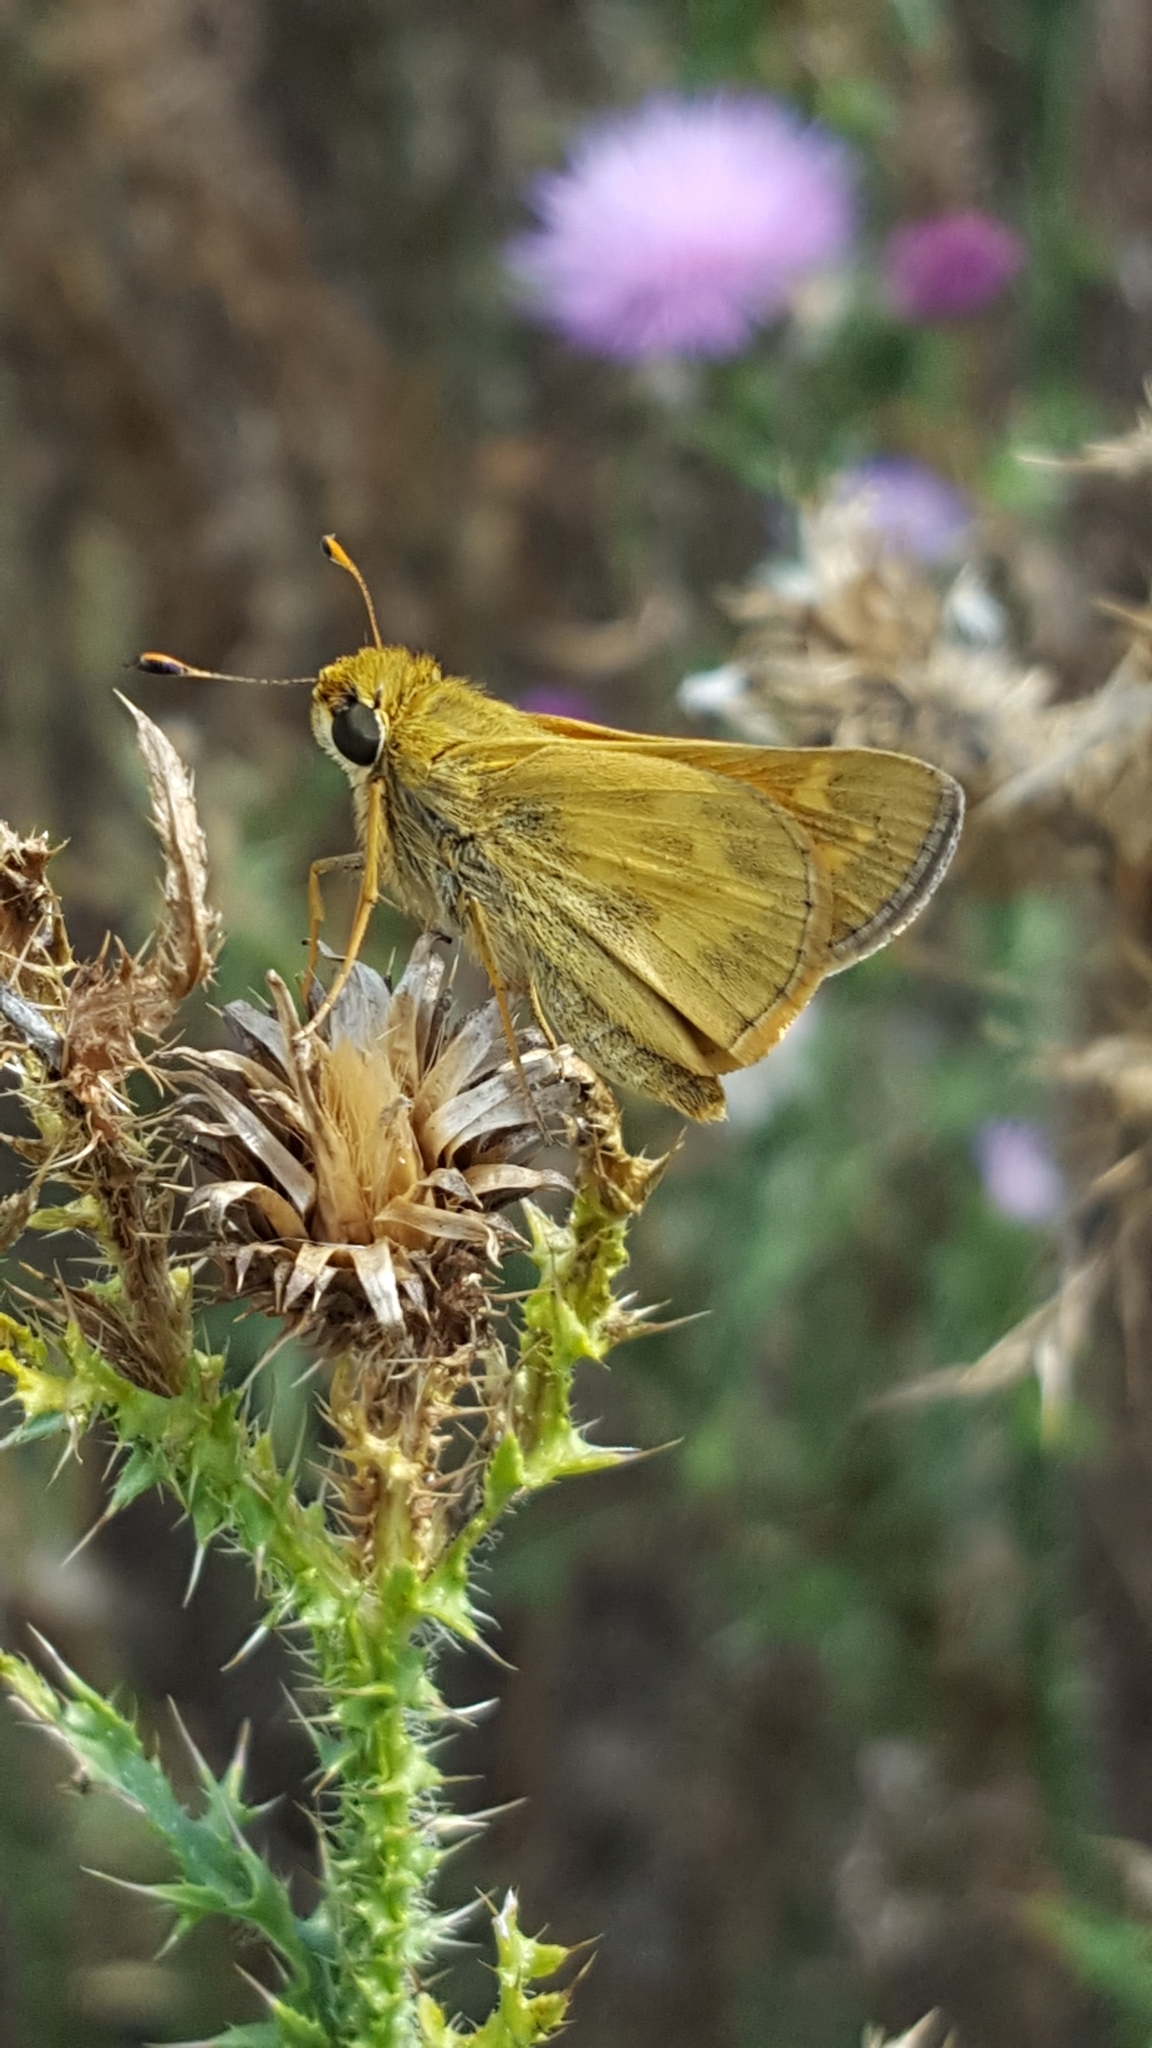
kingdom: Animalia
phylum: Arthropoda
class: Insecta
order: Lepidoptera
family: Hesperiidae
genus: Atalopedes
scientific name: Atalopedes
